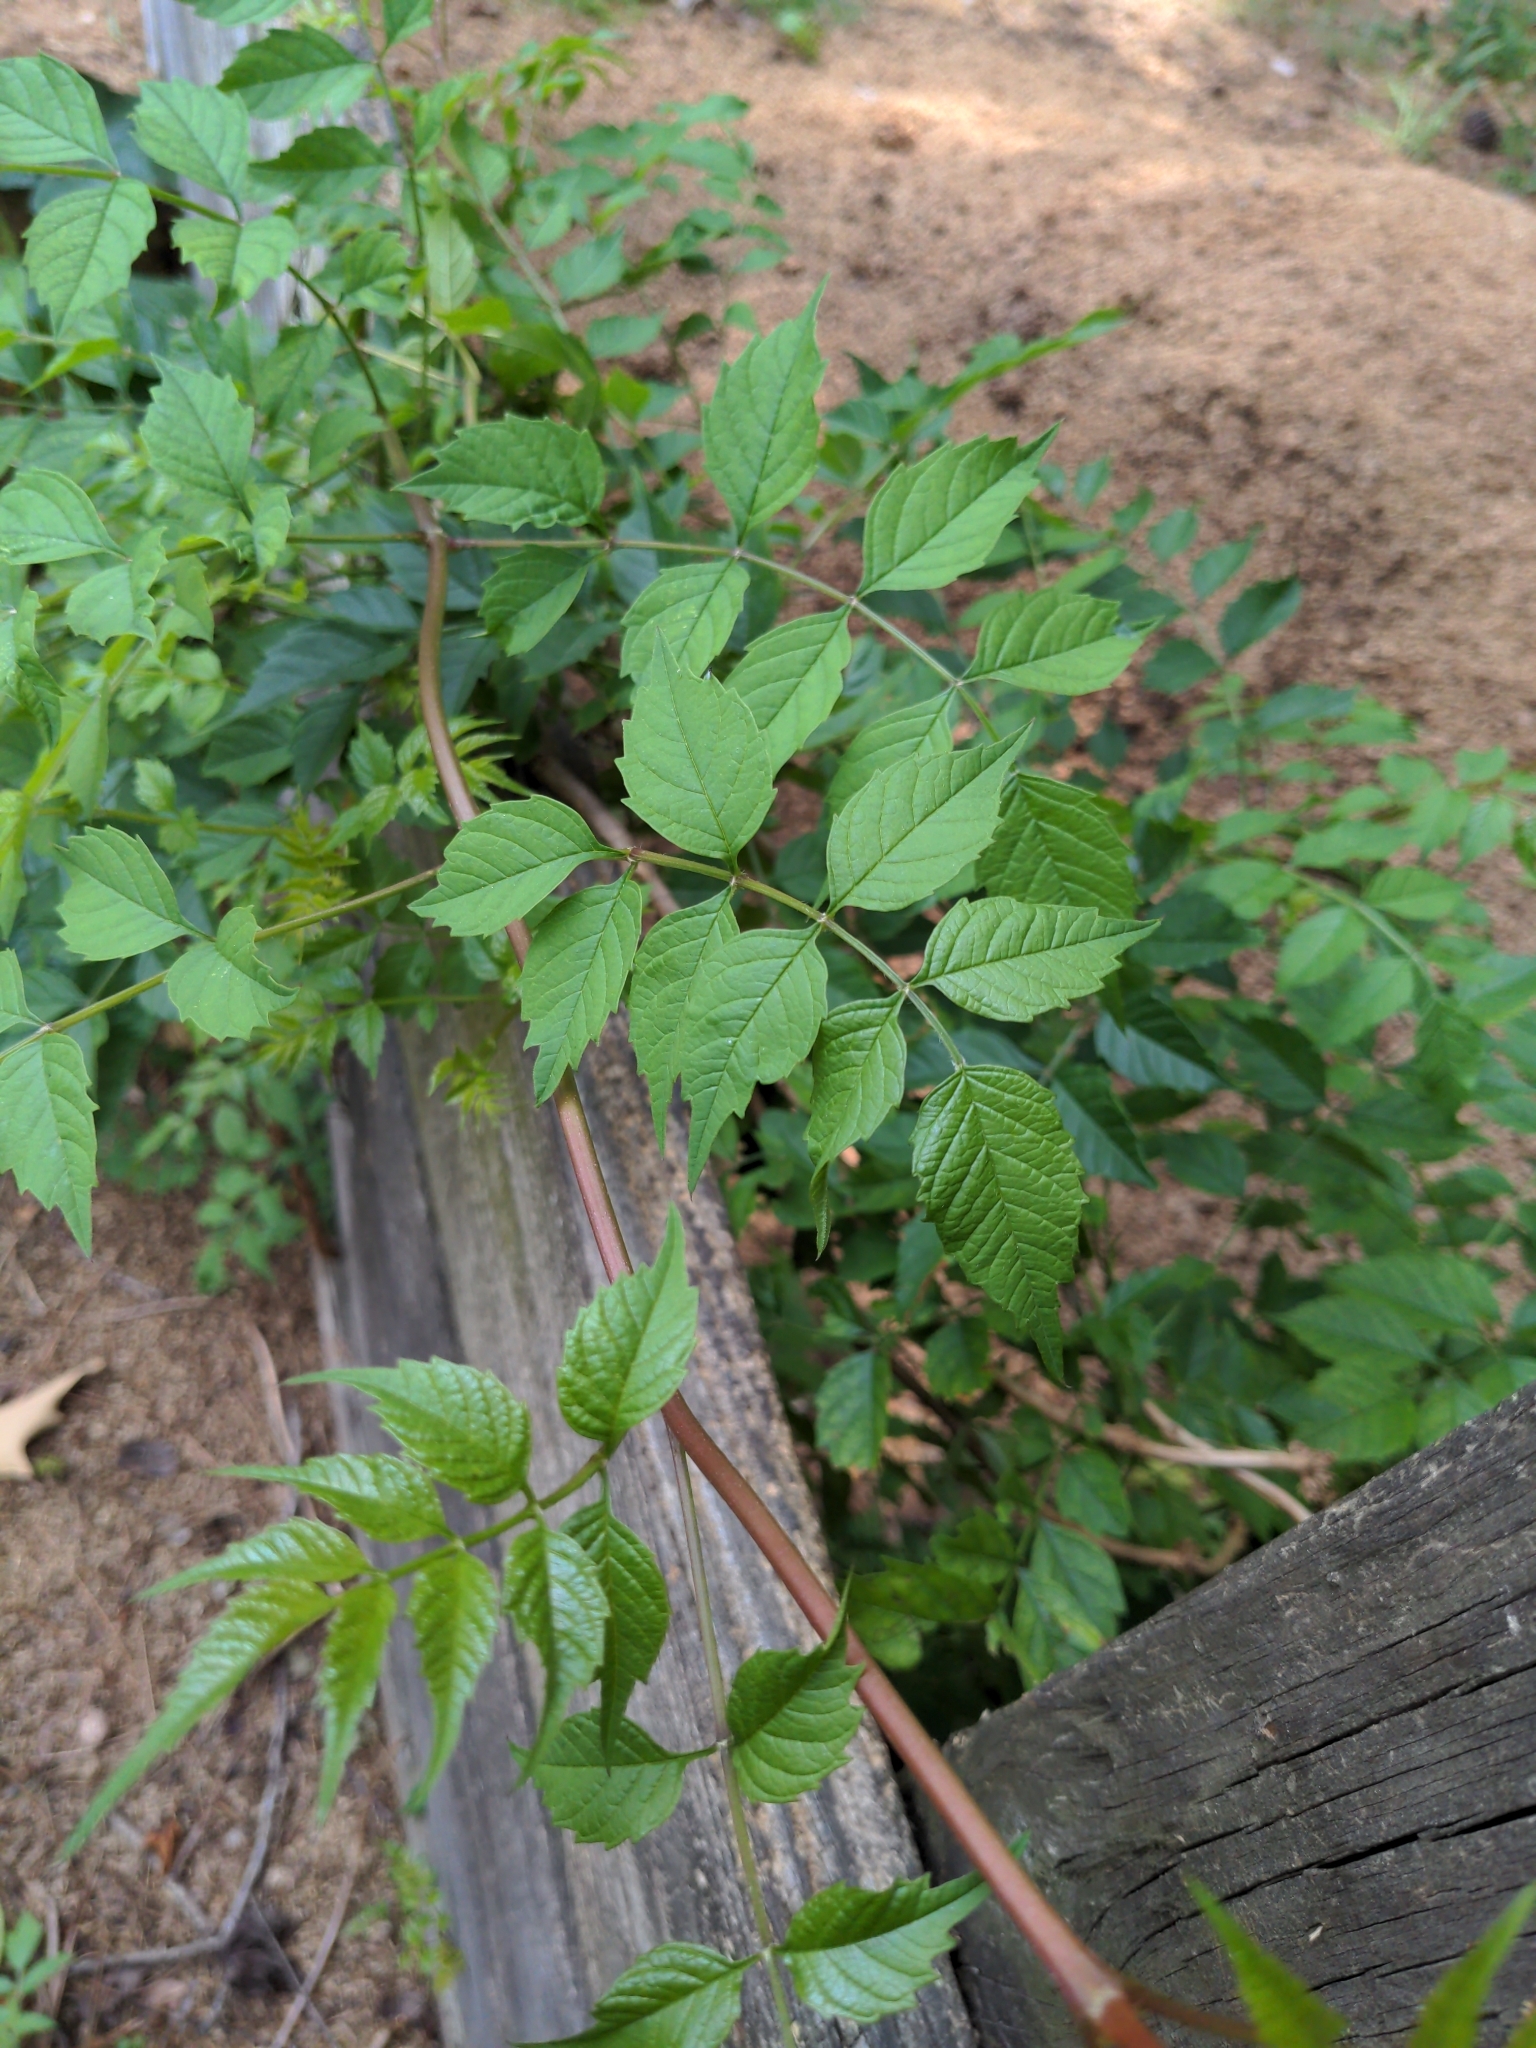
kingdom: Plantae
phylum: Tracheophyta
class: Magnoliopsida
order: Lamiales
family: Bignoniaceae
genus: Campsis
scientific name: Campsis radicans
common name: Trumpet-creeper
